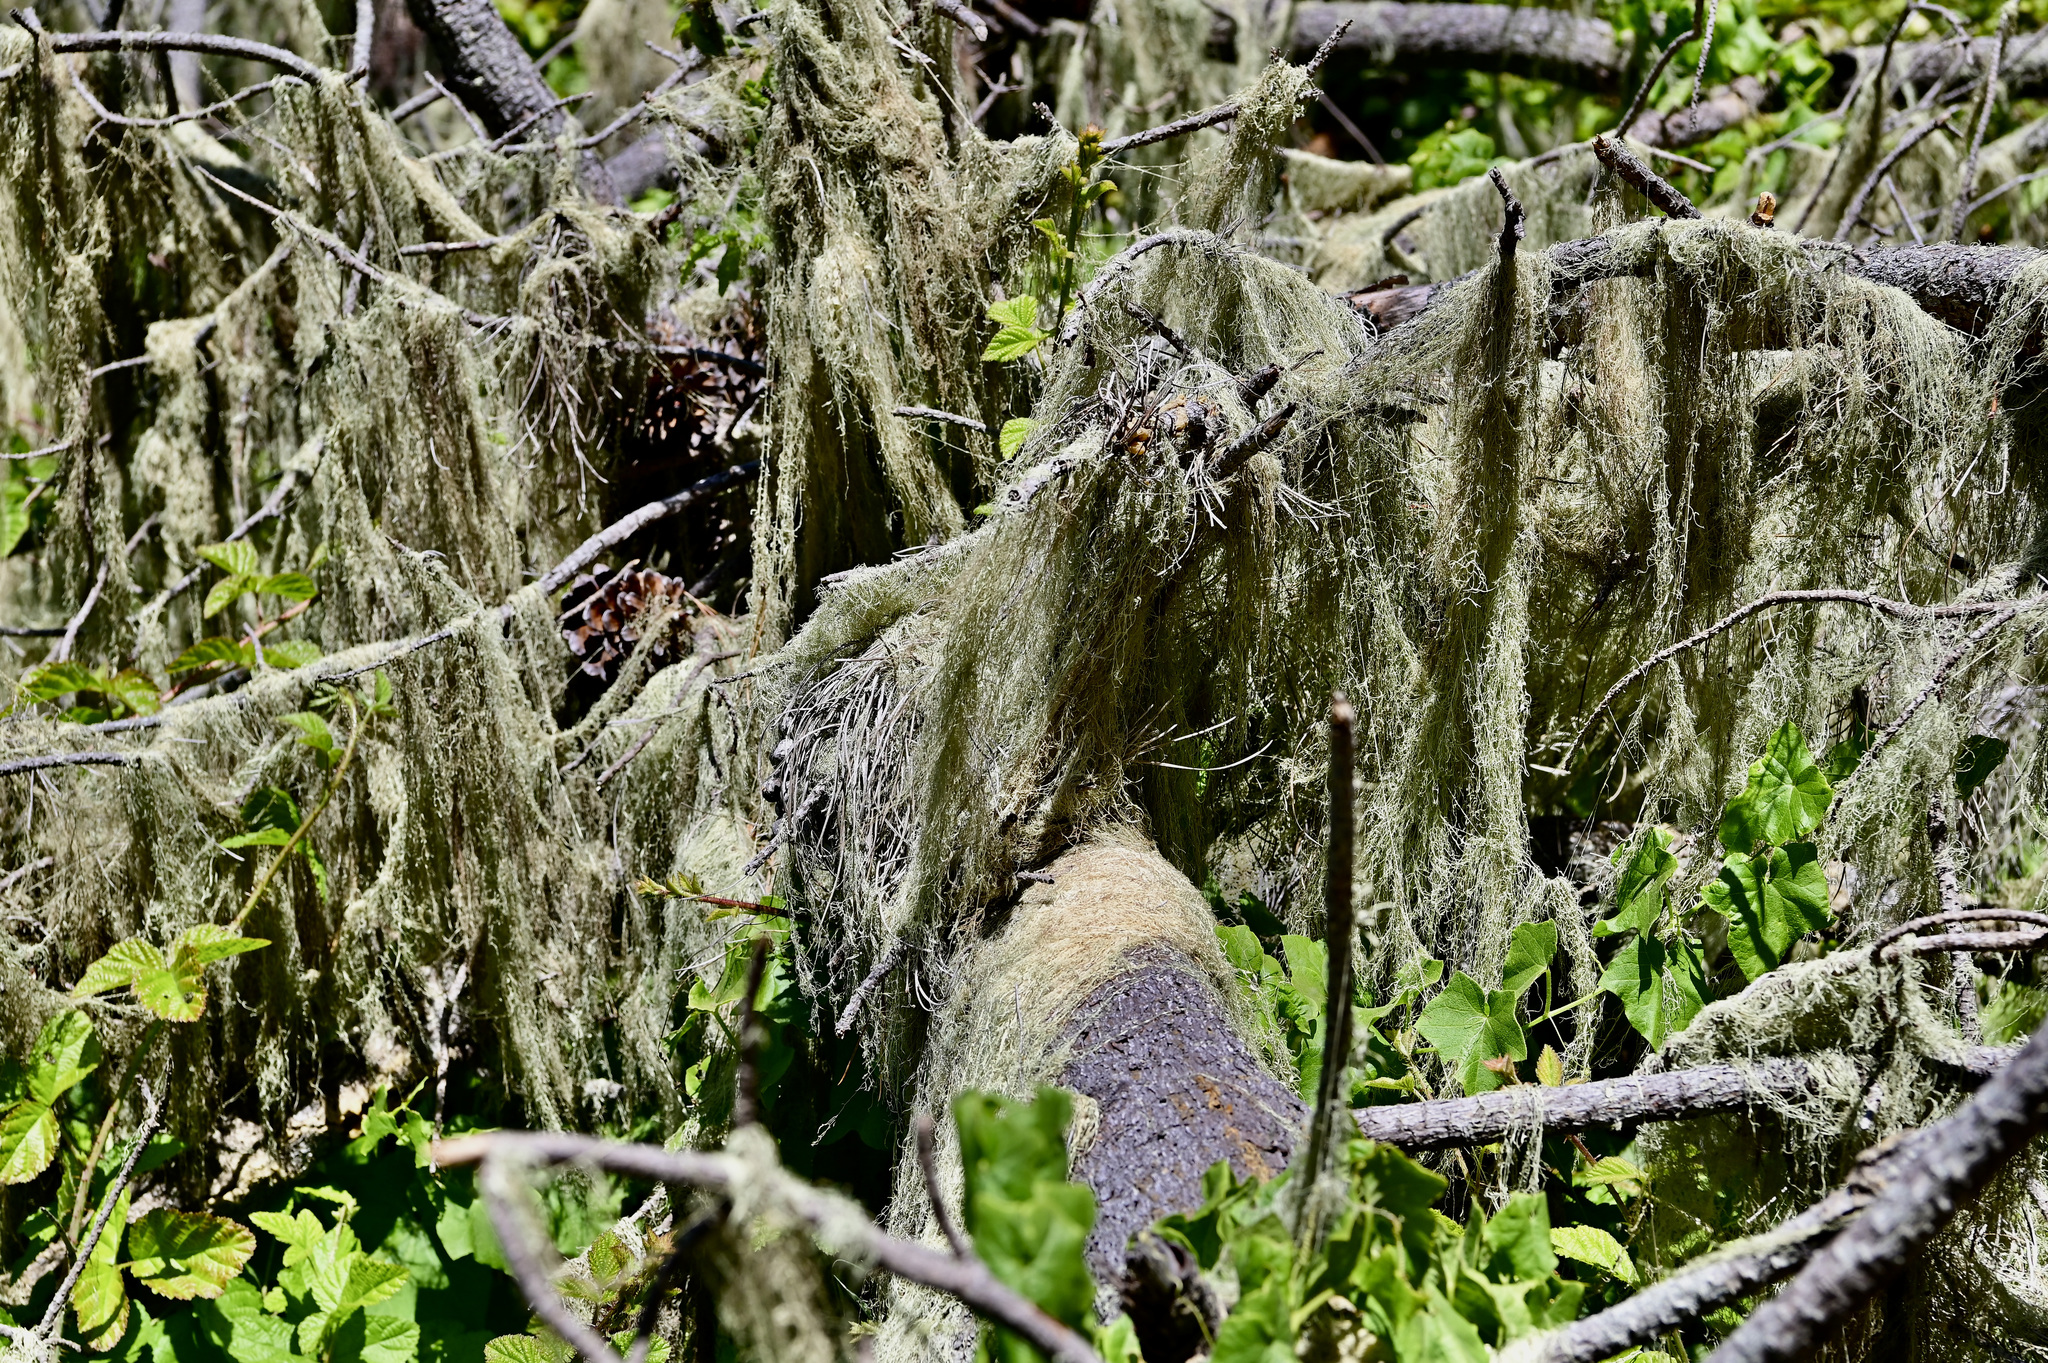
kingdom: Fungi
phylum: Ascomycota
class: Lecanoromycetes
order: Lecanorales
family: Ramalinaceae
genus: Ramalina
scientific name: Ramalina menziesii
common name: Lace lichen
